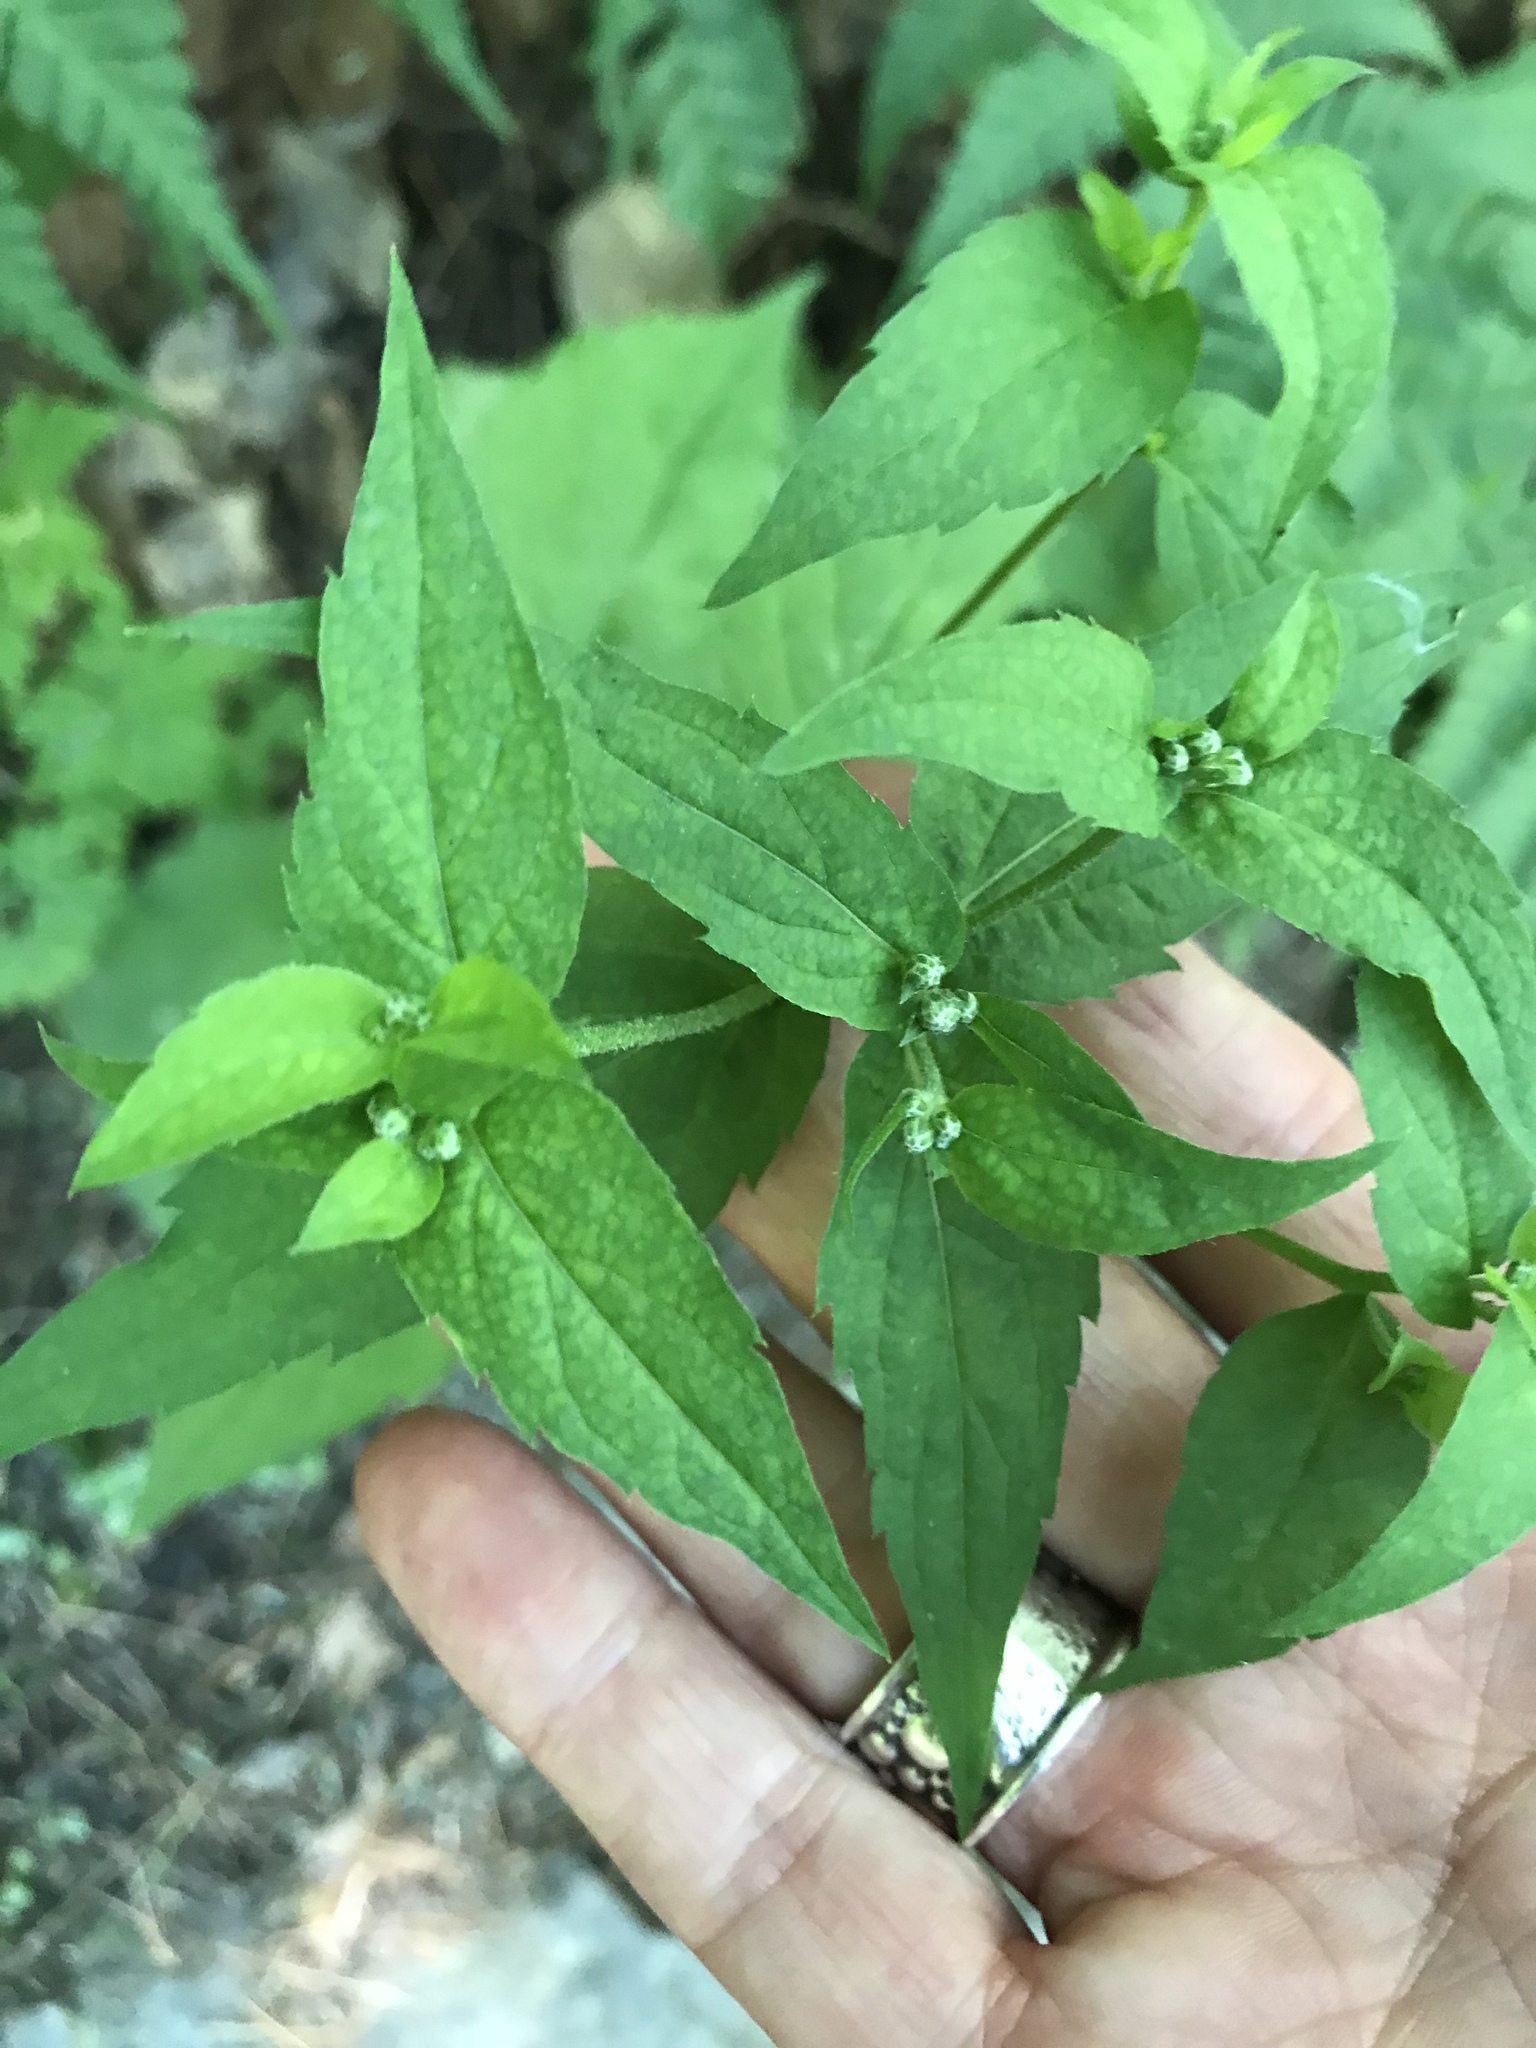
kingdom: Plantae
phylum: Tracheophyta
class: Magnoliopsida
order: Asterales
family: Asteraceae
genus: Eurybia
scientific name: Eurybia divaricata
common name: White wood aster
